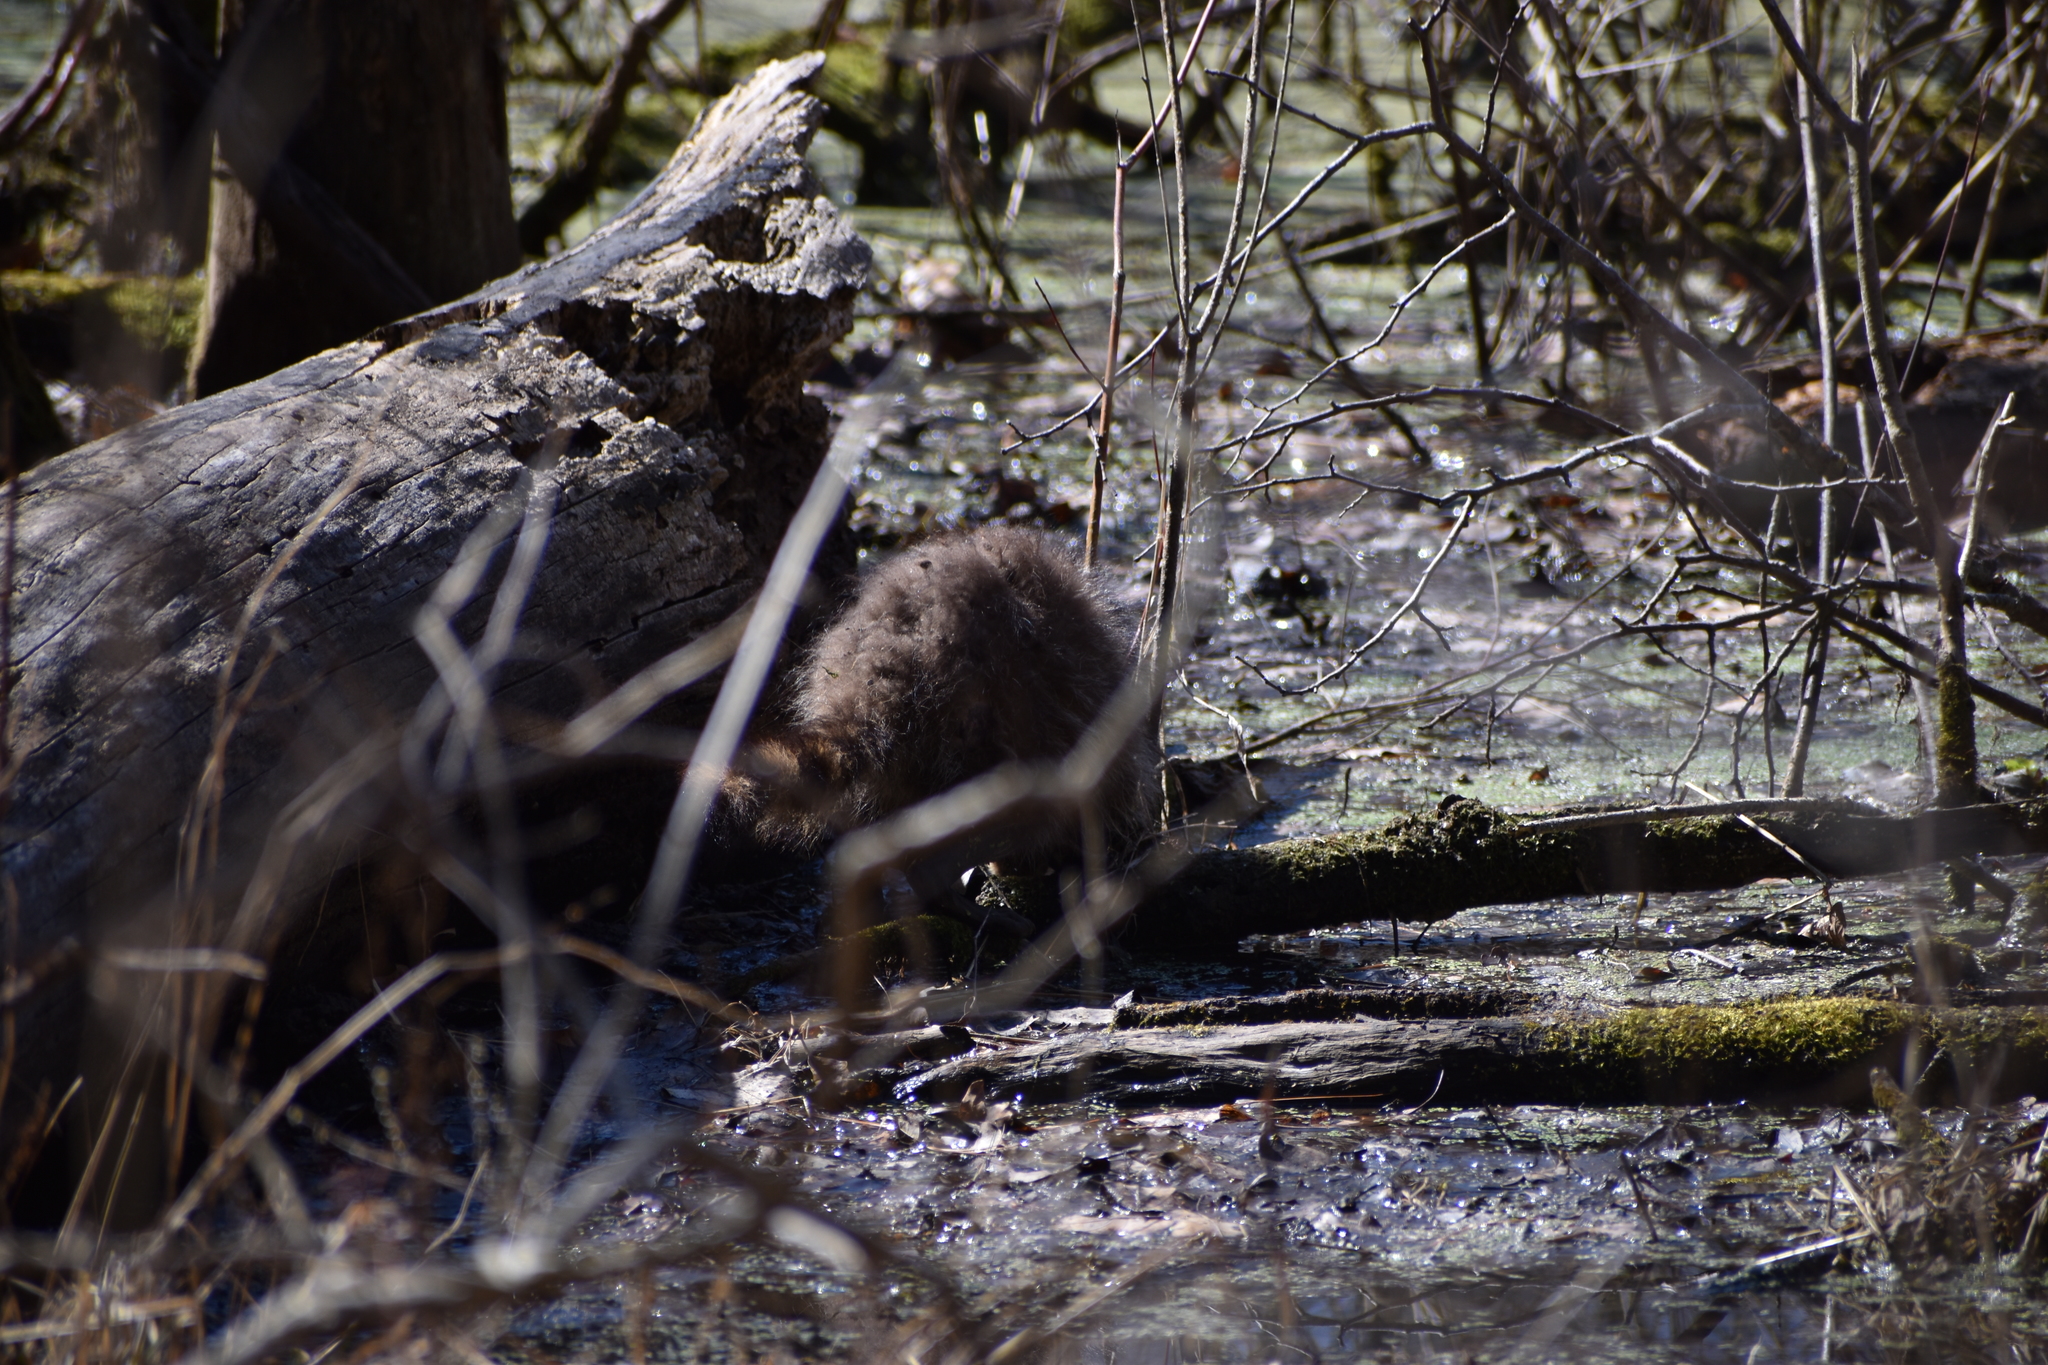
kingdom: Animalia
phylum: Chordata
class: Mammalia
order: Carnivora
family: Procyonidae
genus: Procyon
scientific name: Procyon lotor
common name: Raccoon
